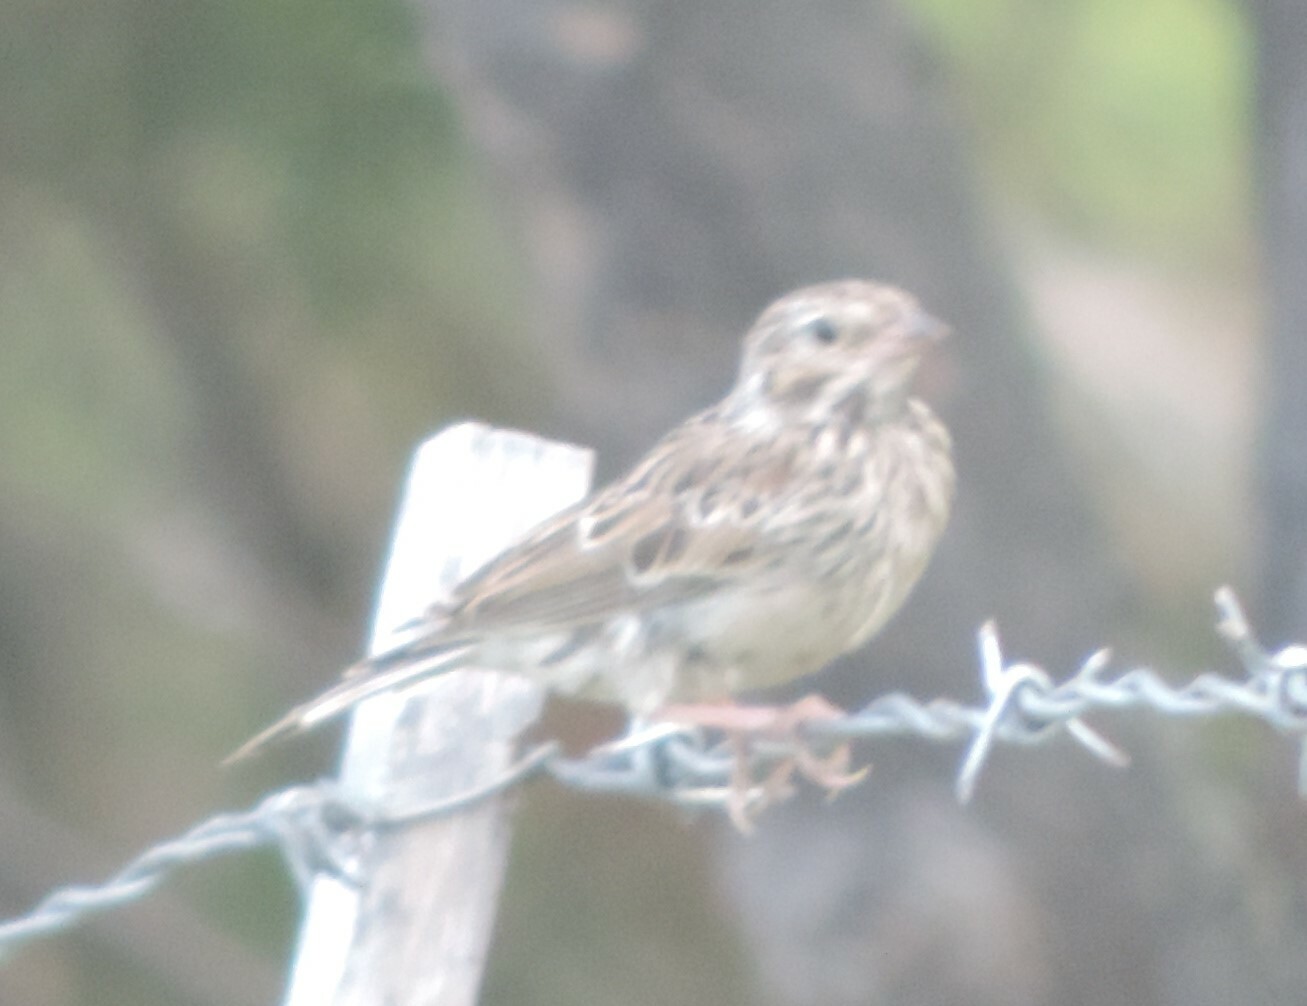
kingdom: Animalia
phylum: Chordata
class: Aves
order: Passeriformes
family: Passerellidae
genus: Pooecetes
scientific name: Pooecetes gramineus
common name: Vesper sparrow
